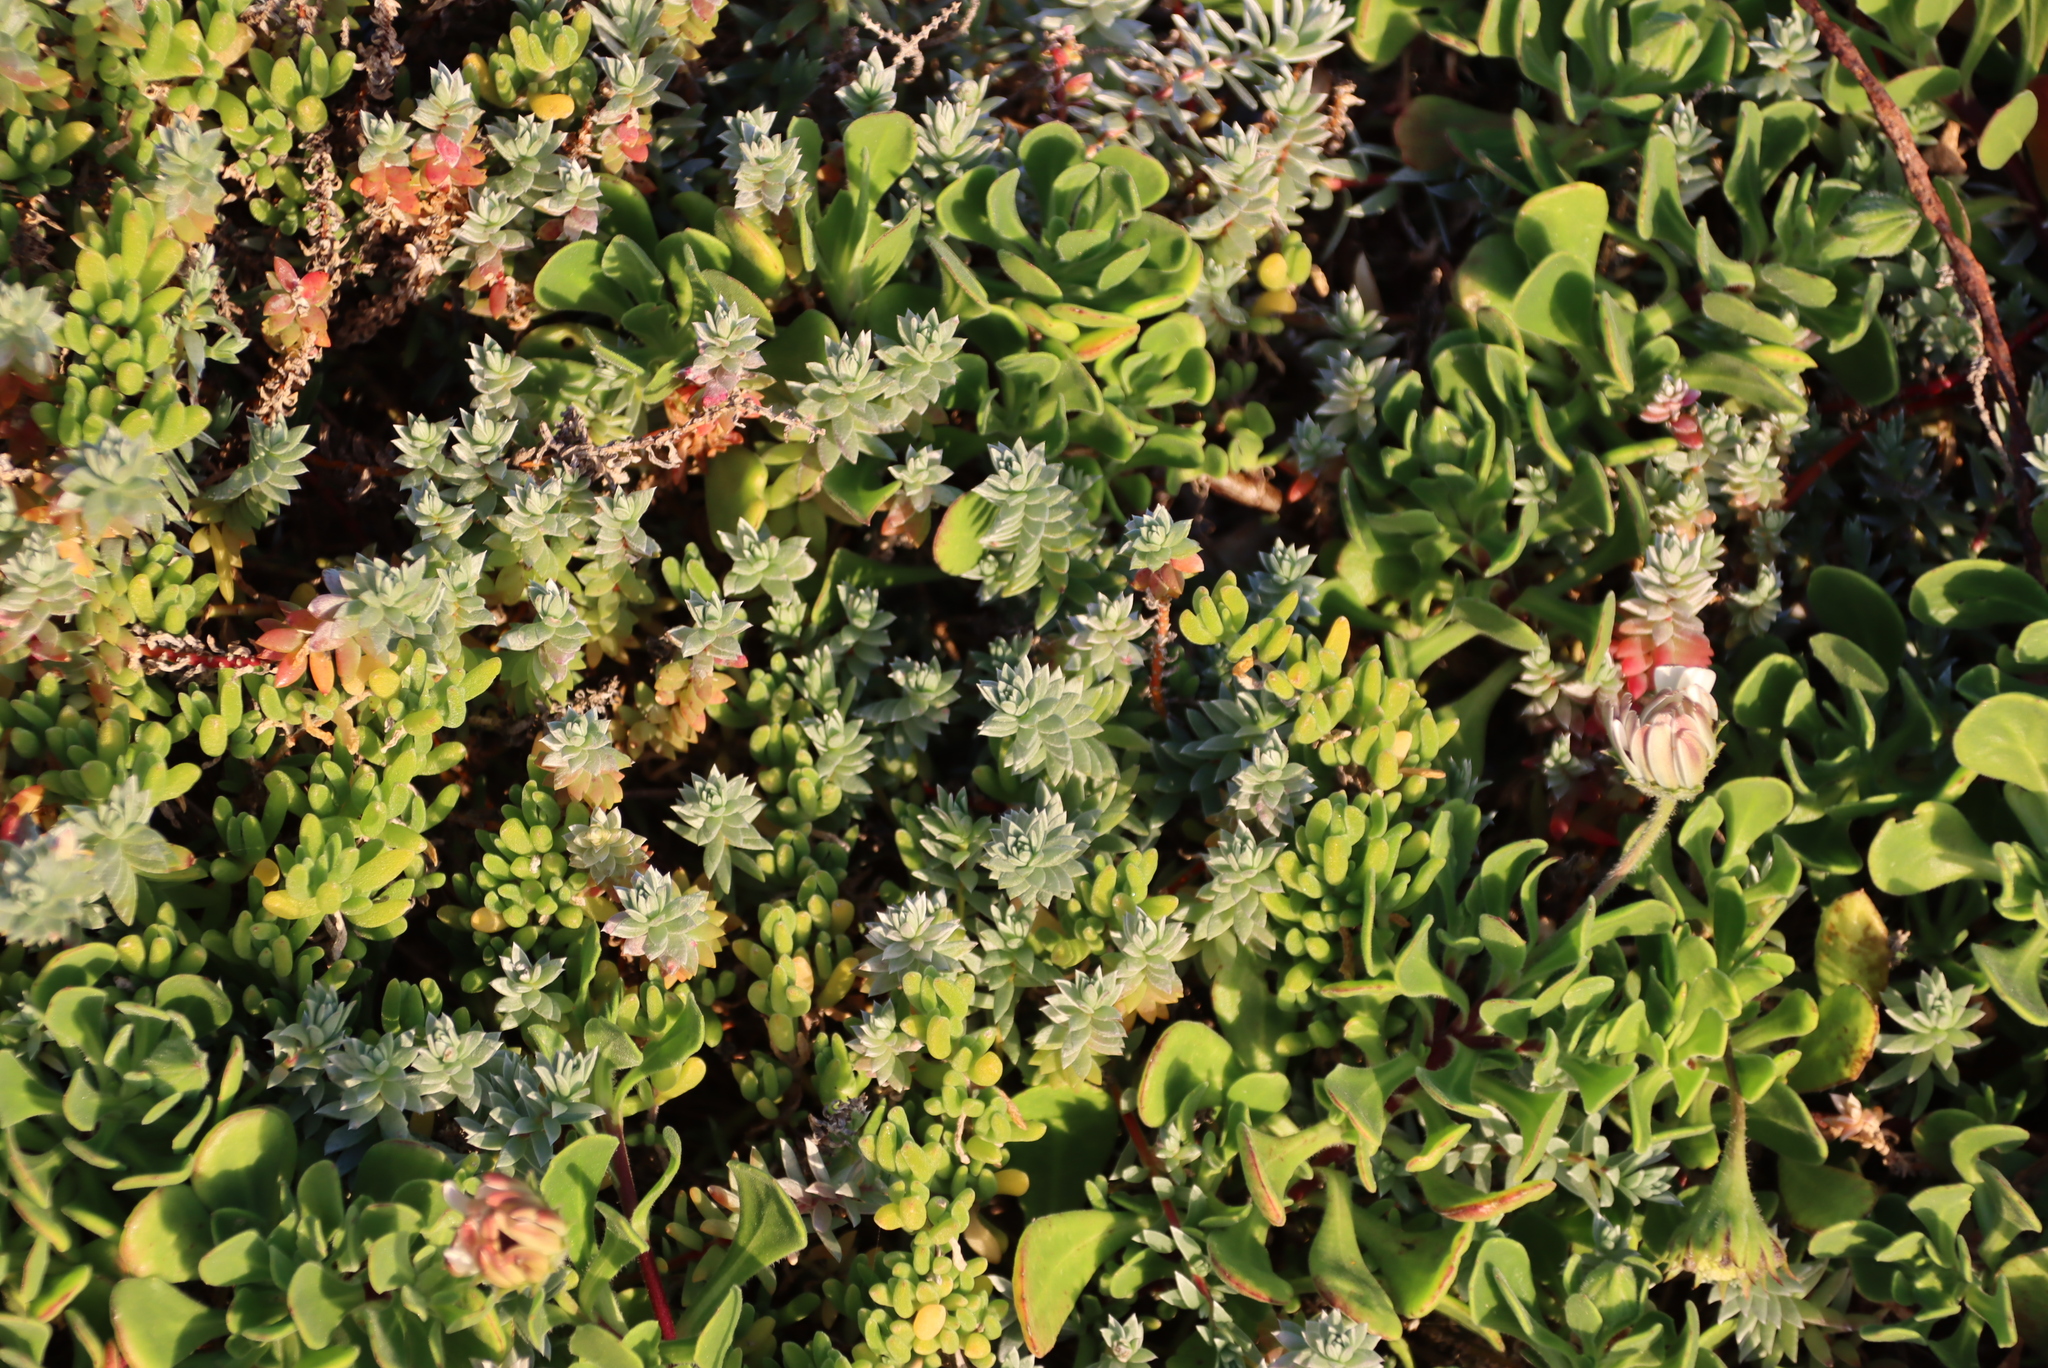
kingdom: Plantae
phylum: Tracheophyta
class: Magnoliopsida
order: Caryophyllales
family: Amaranthaceae
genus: Chenolea
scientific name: Chenolea diffusa
